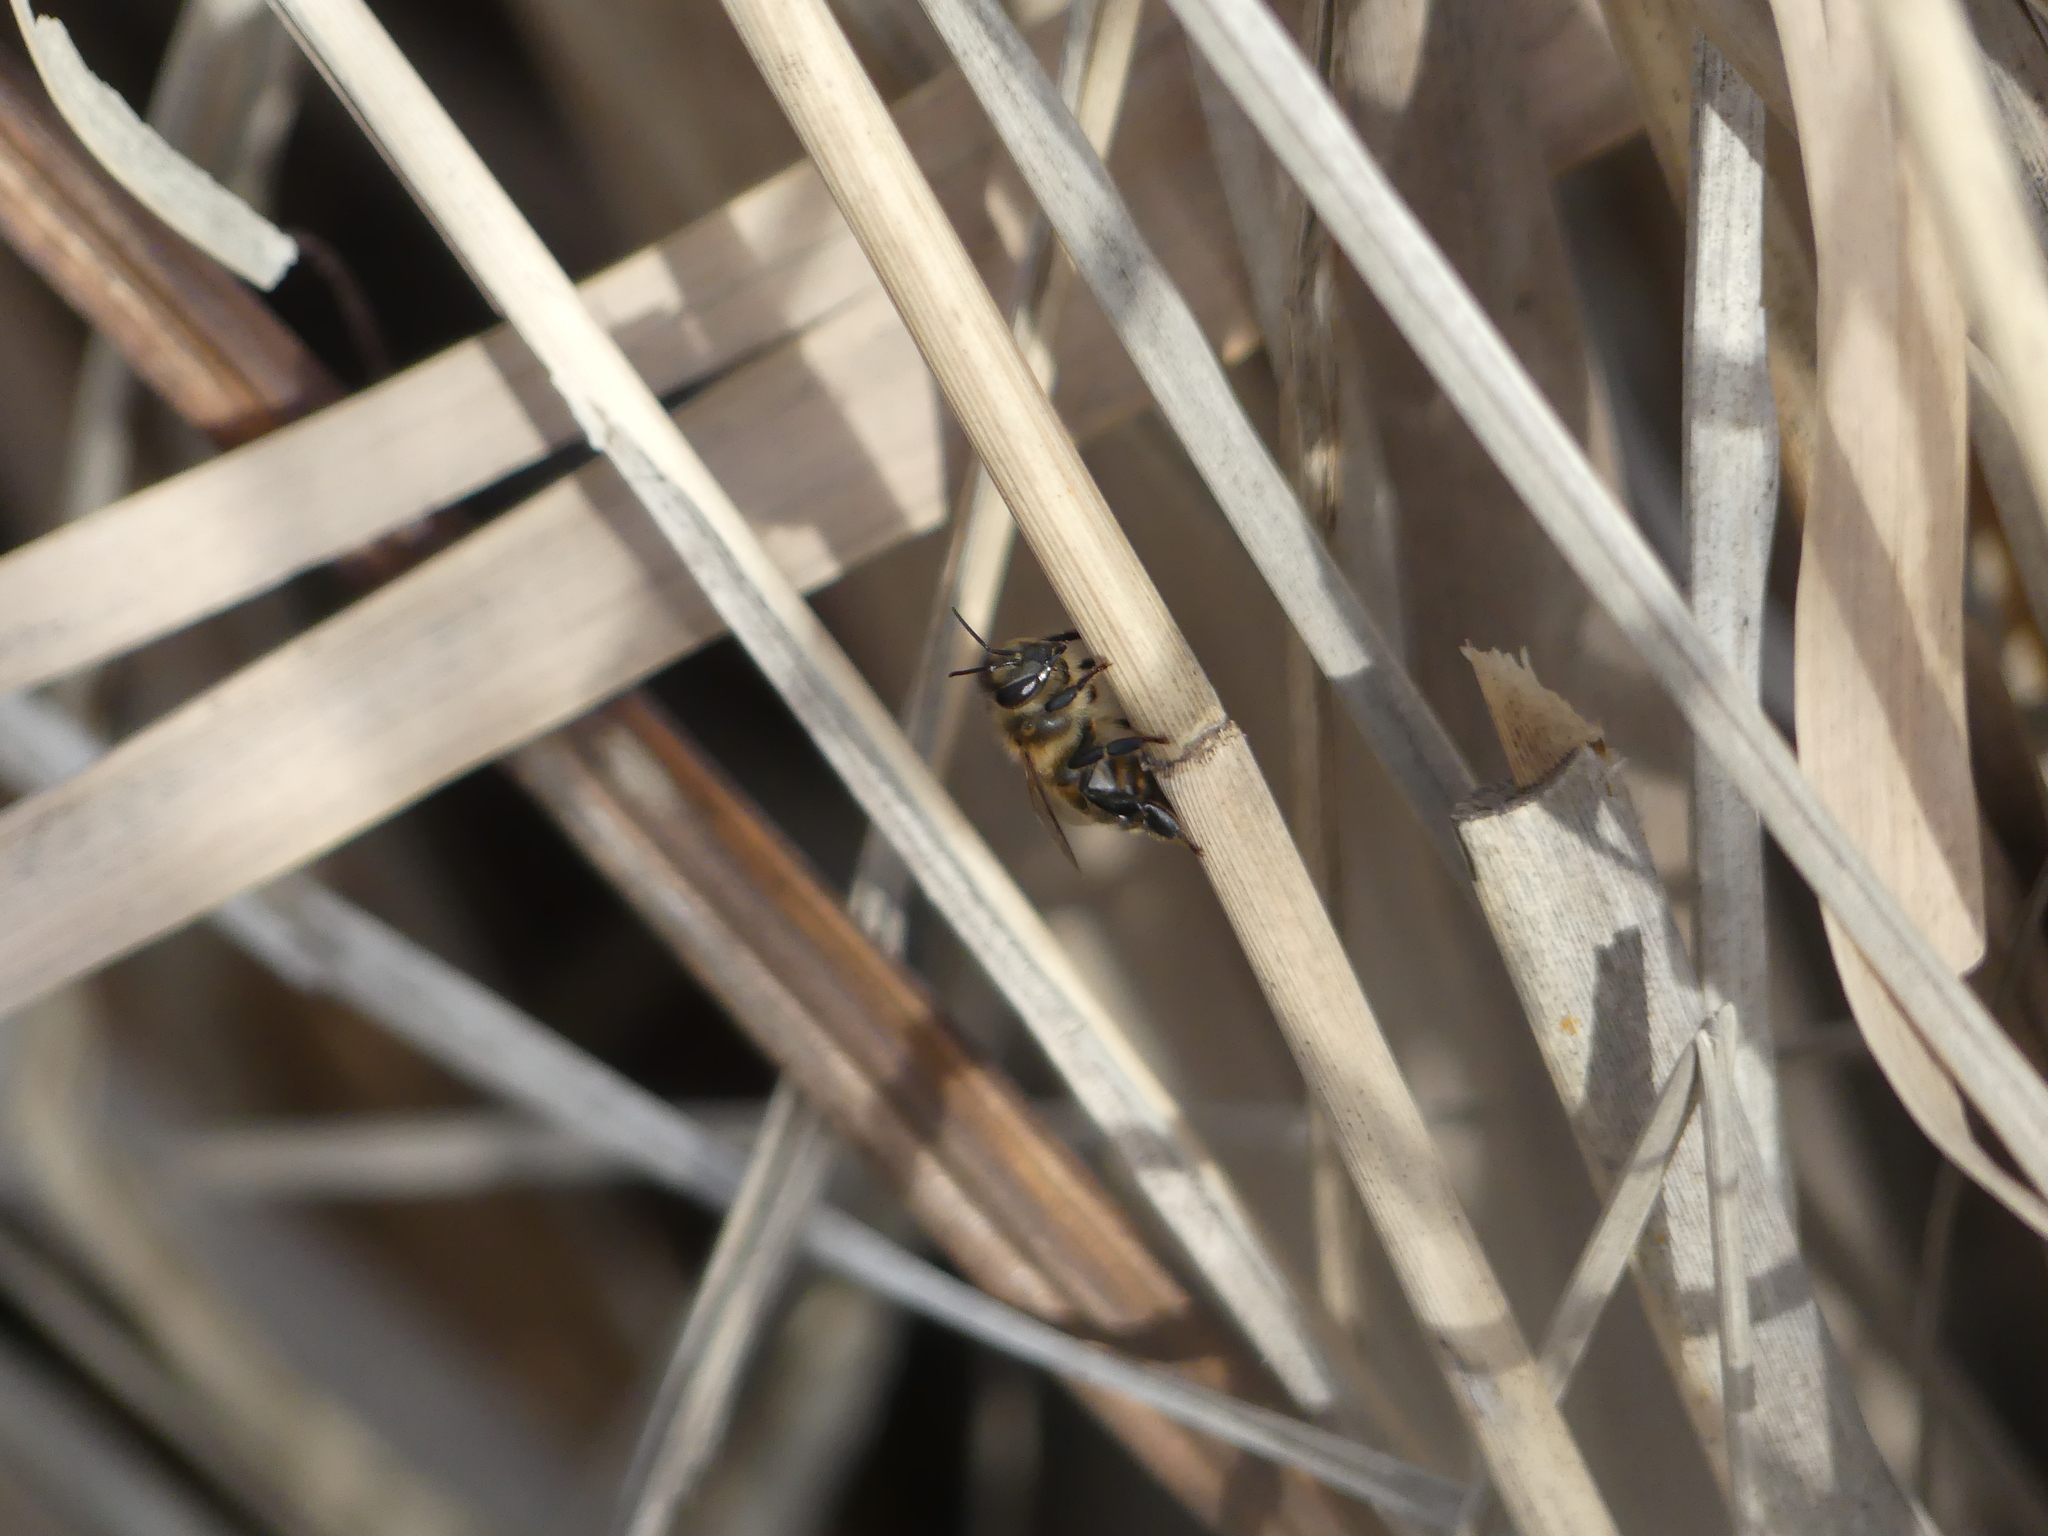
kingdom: Animalia
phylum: Arthropoda
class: Insecta
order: Hymenoptera
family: Apidae
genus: Apis
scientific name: Apis mellifera
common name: Honey bee
